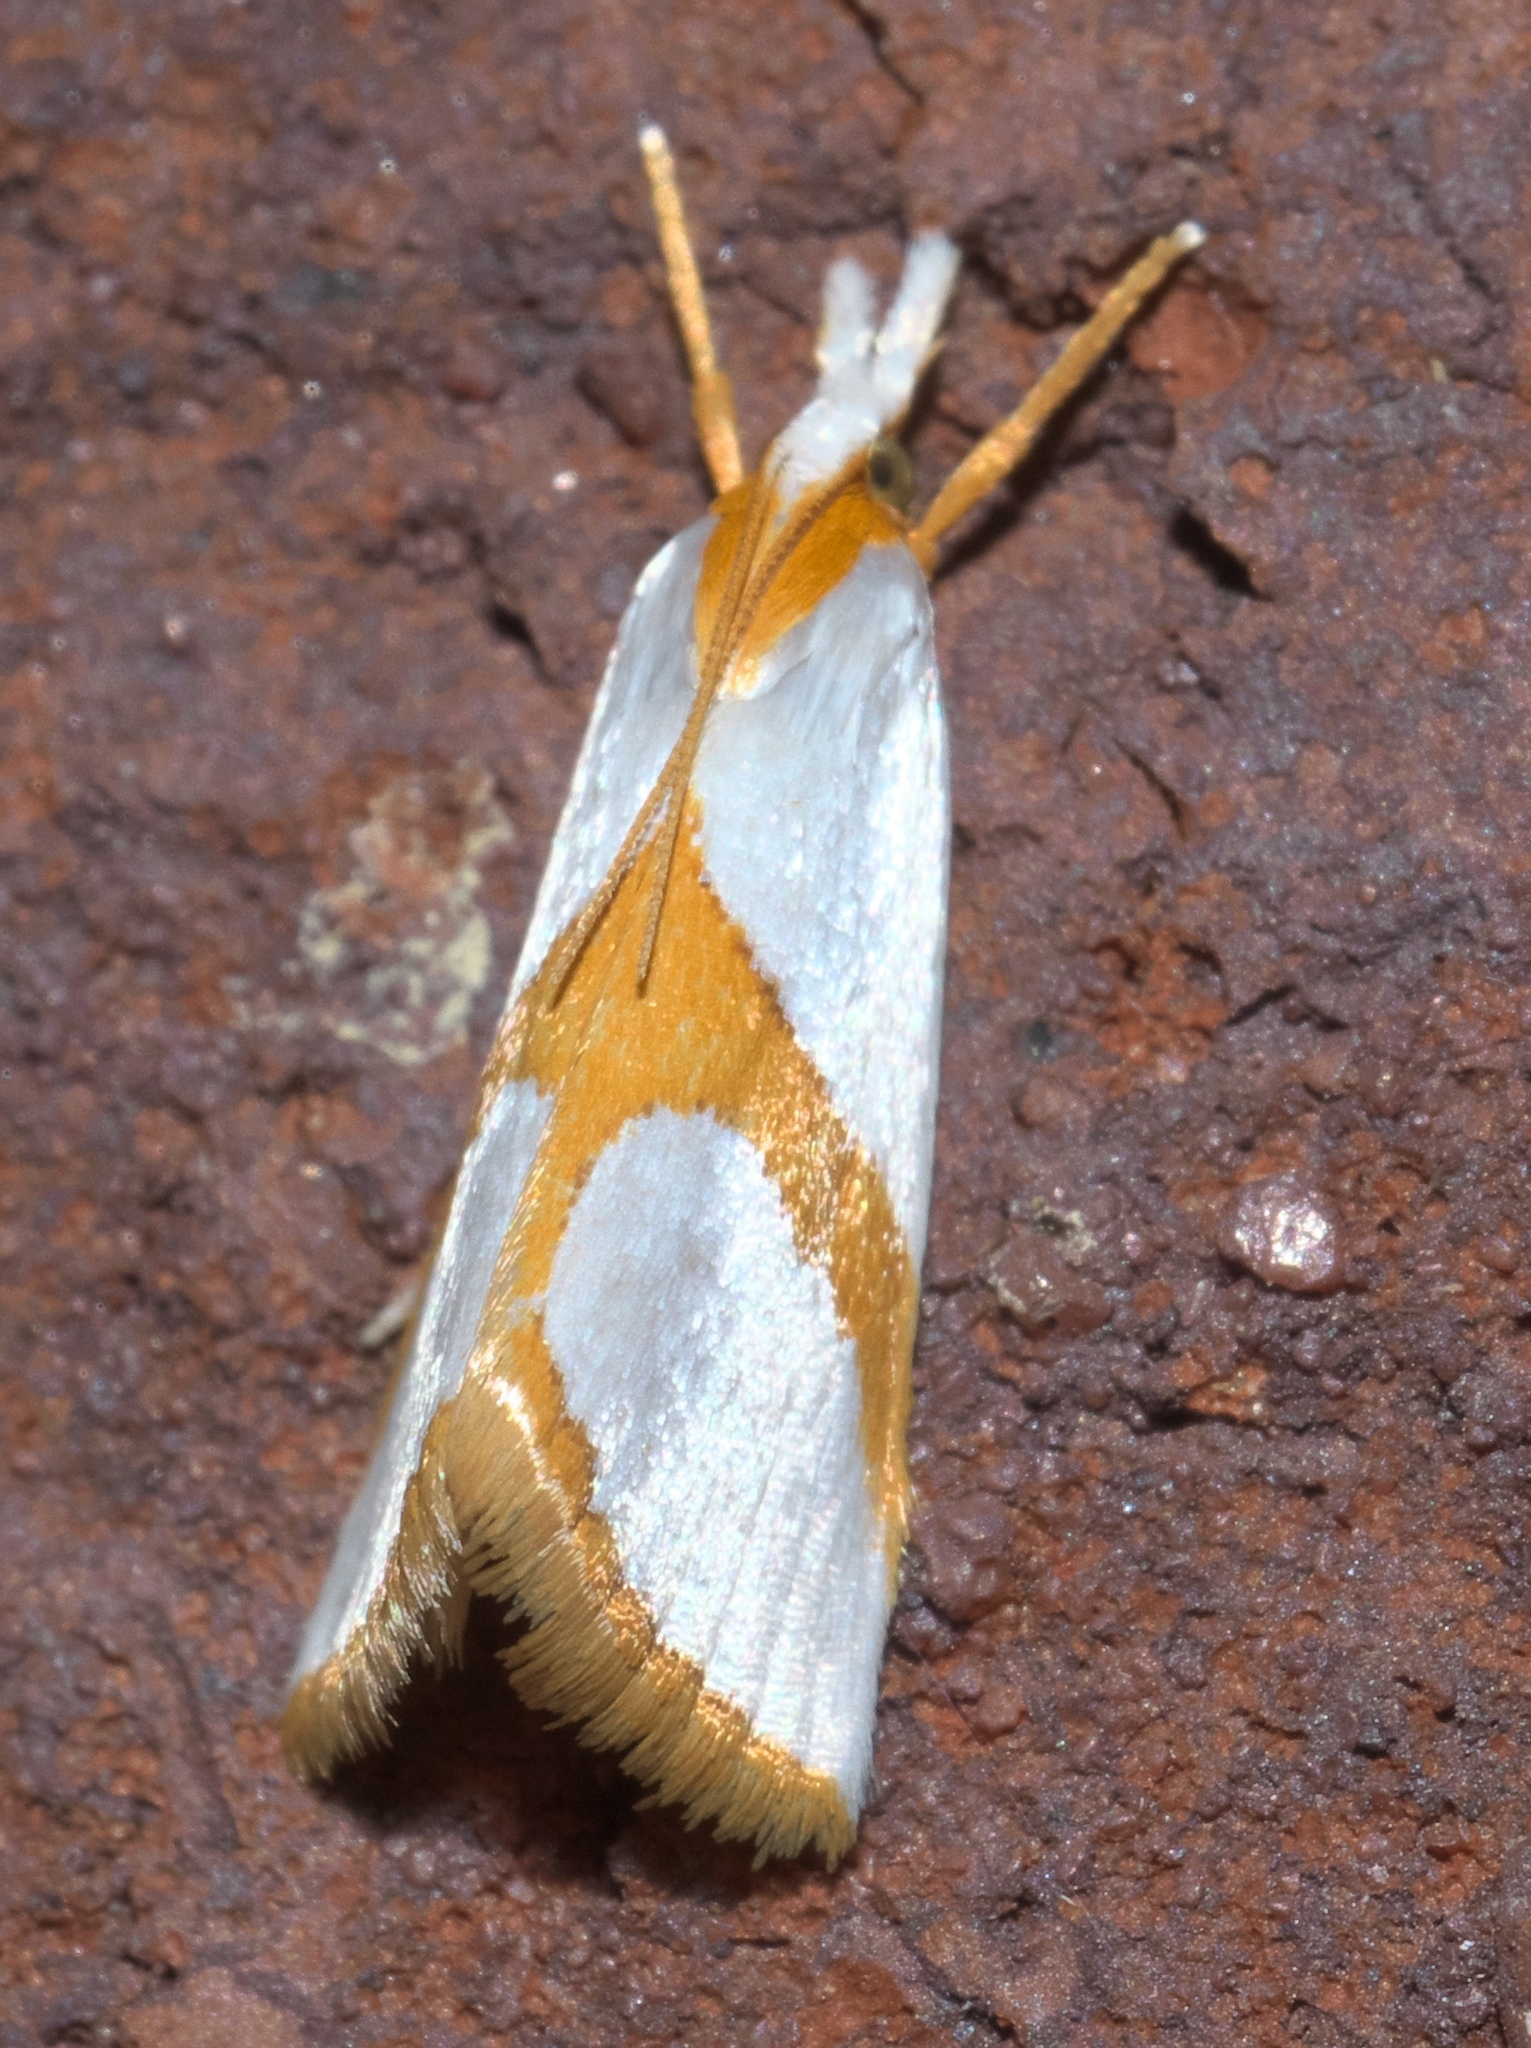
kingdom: Animalia
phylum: Arthropoda
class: Insecta
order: Lepidoptera
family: Crambidae
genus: Argyria
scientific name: Argyria auratella
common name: Curve-lined argyria moth
